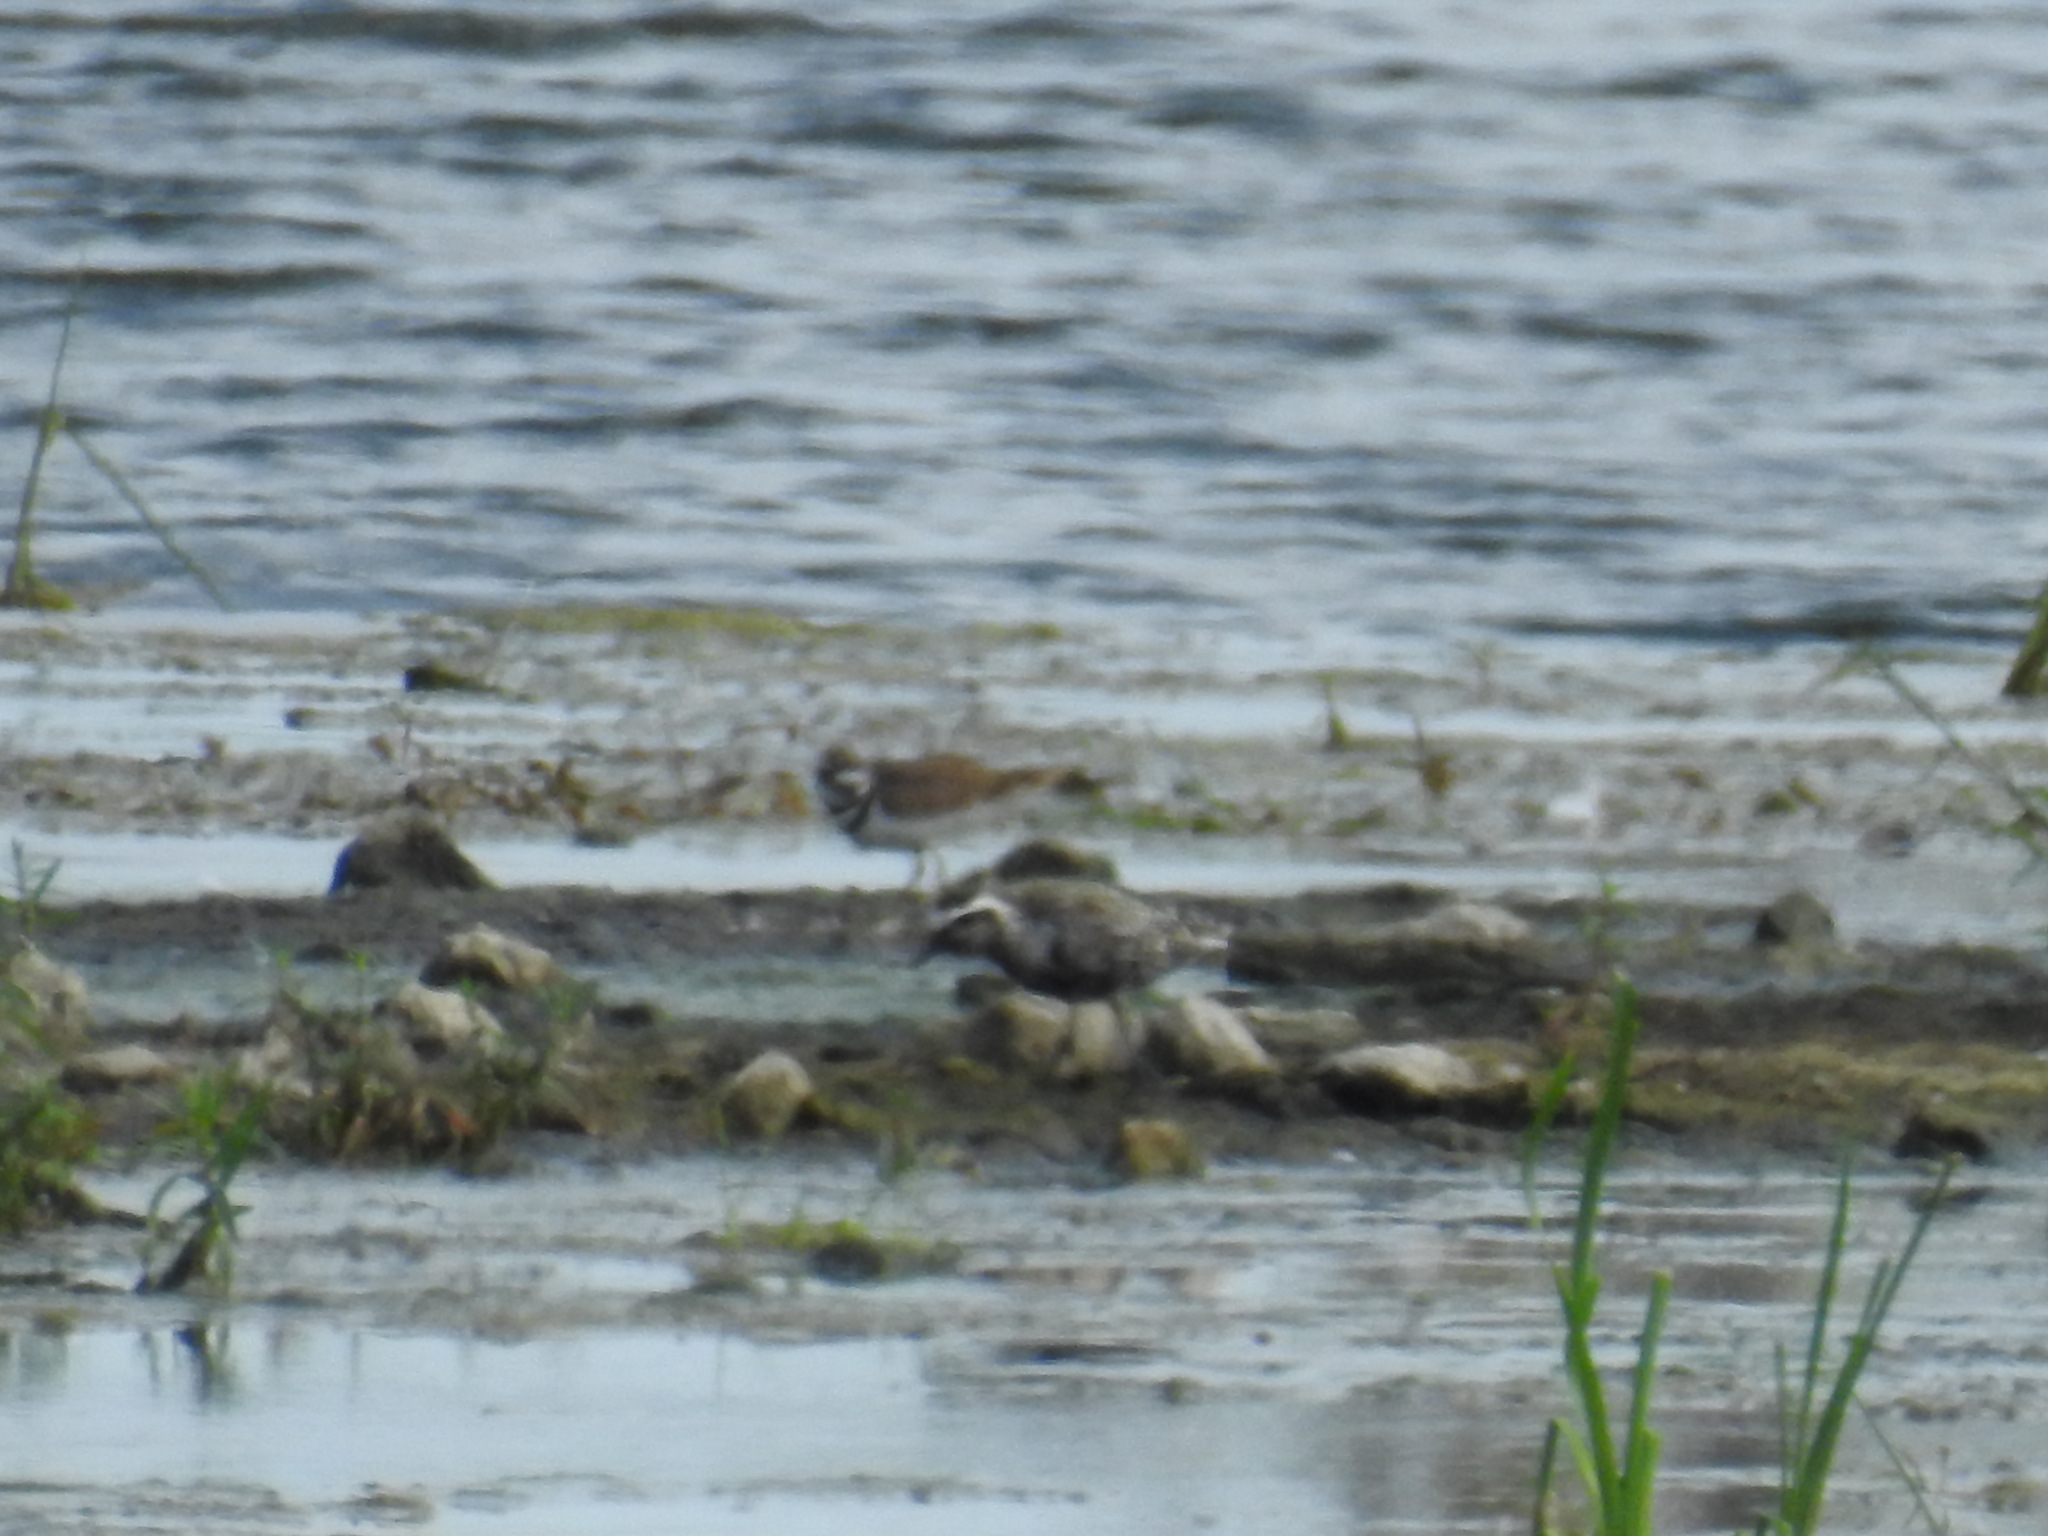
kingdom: Animalia
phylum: Chordata
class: Aves
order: Charadriiformes
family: Charadriidae
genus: Pluvialis
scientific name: Pluvialis dominica
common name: American golden plover
